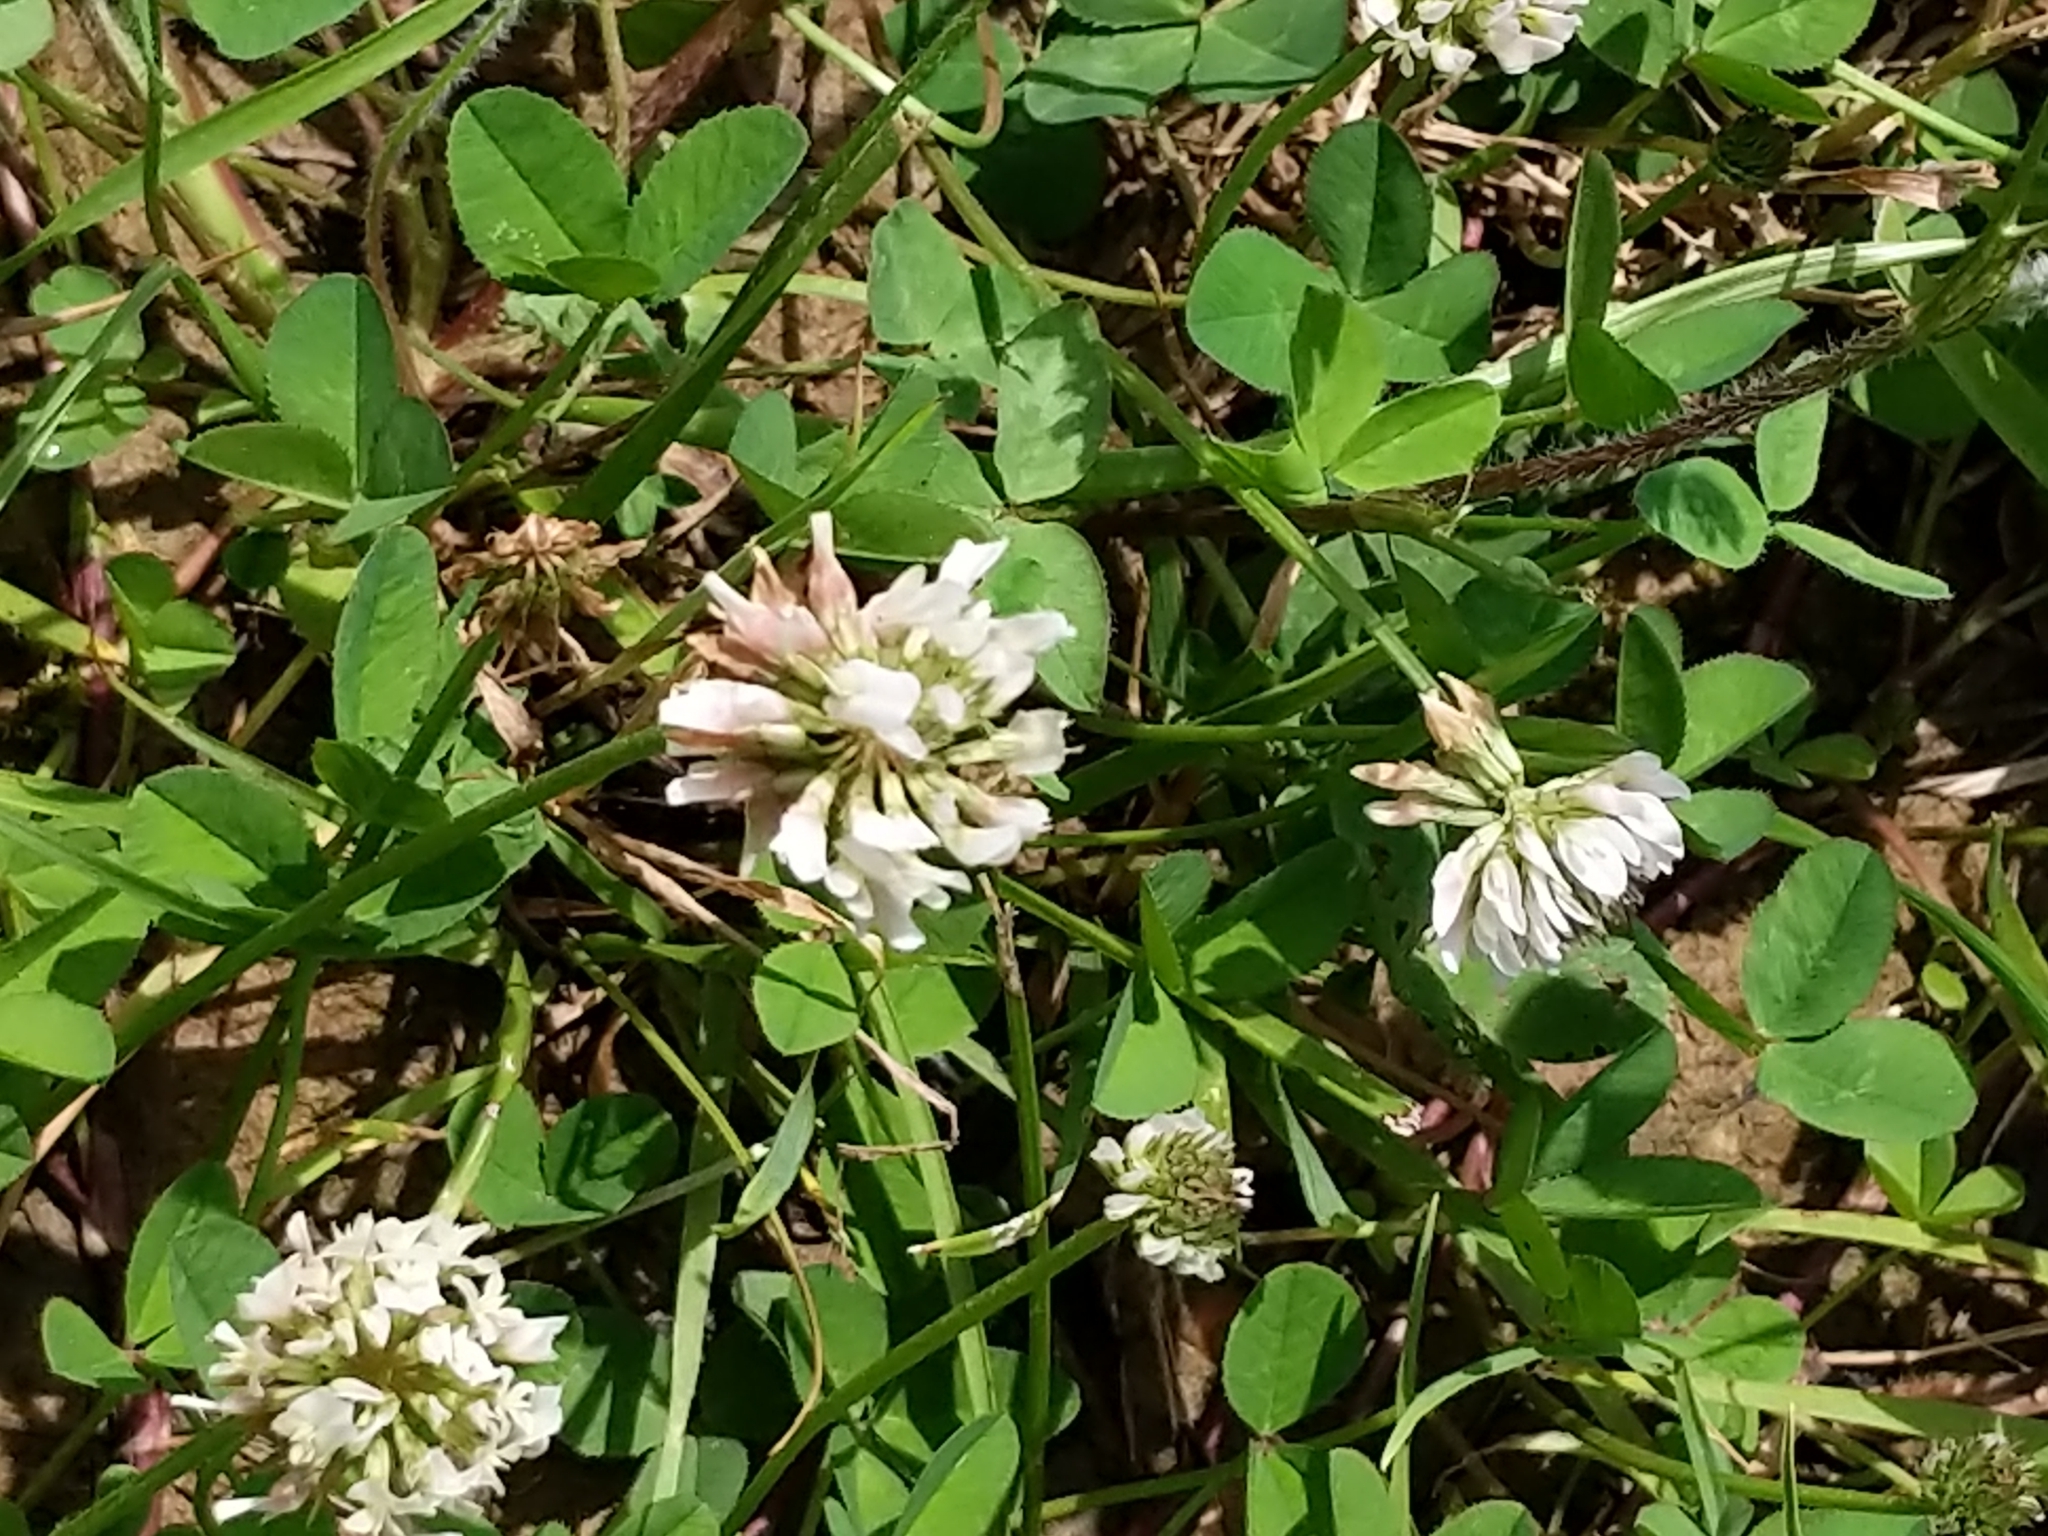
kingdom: Plantae
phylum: Tracheophyta
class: Magnoliopsida
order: Fabales
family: Fabaceae
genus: Trifolium
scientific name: Trifolium repens
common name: White clover
